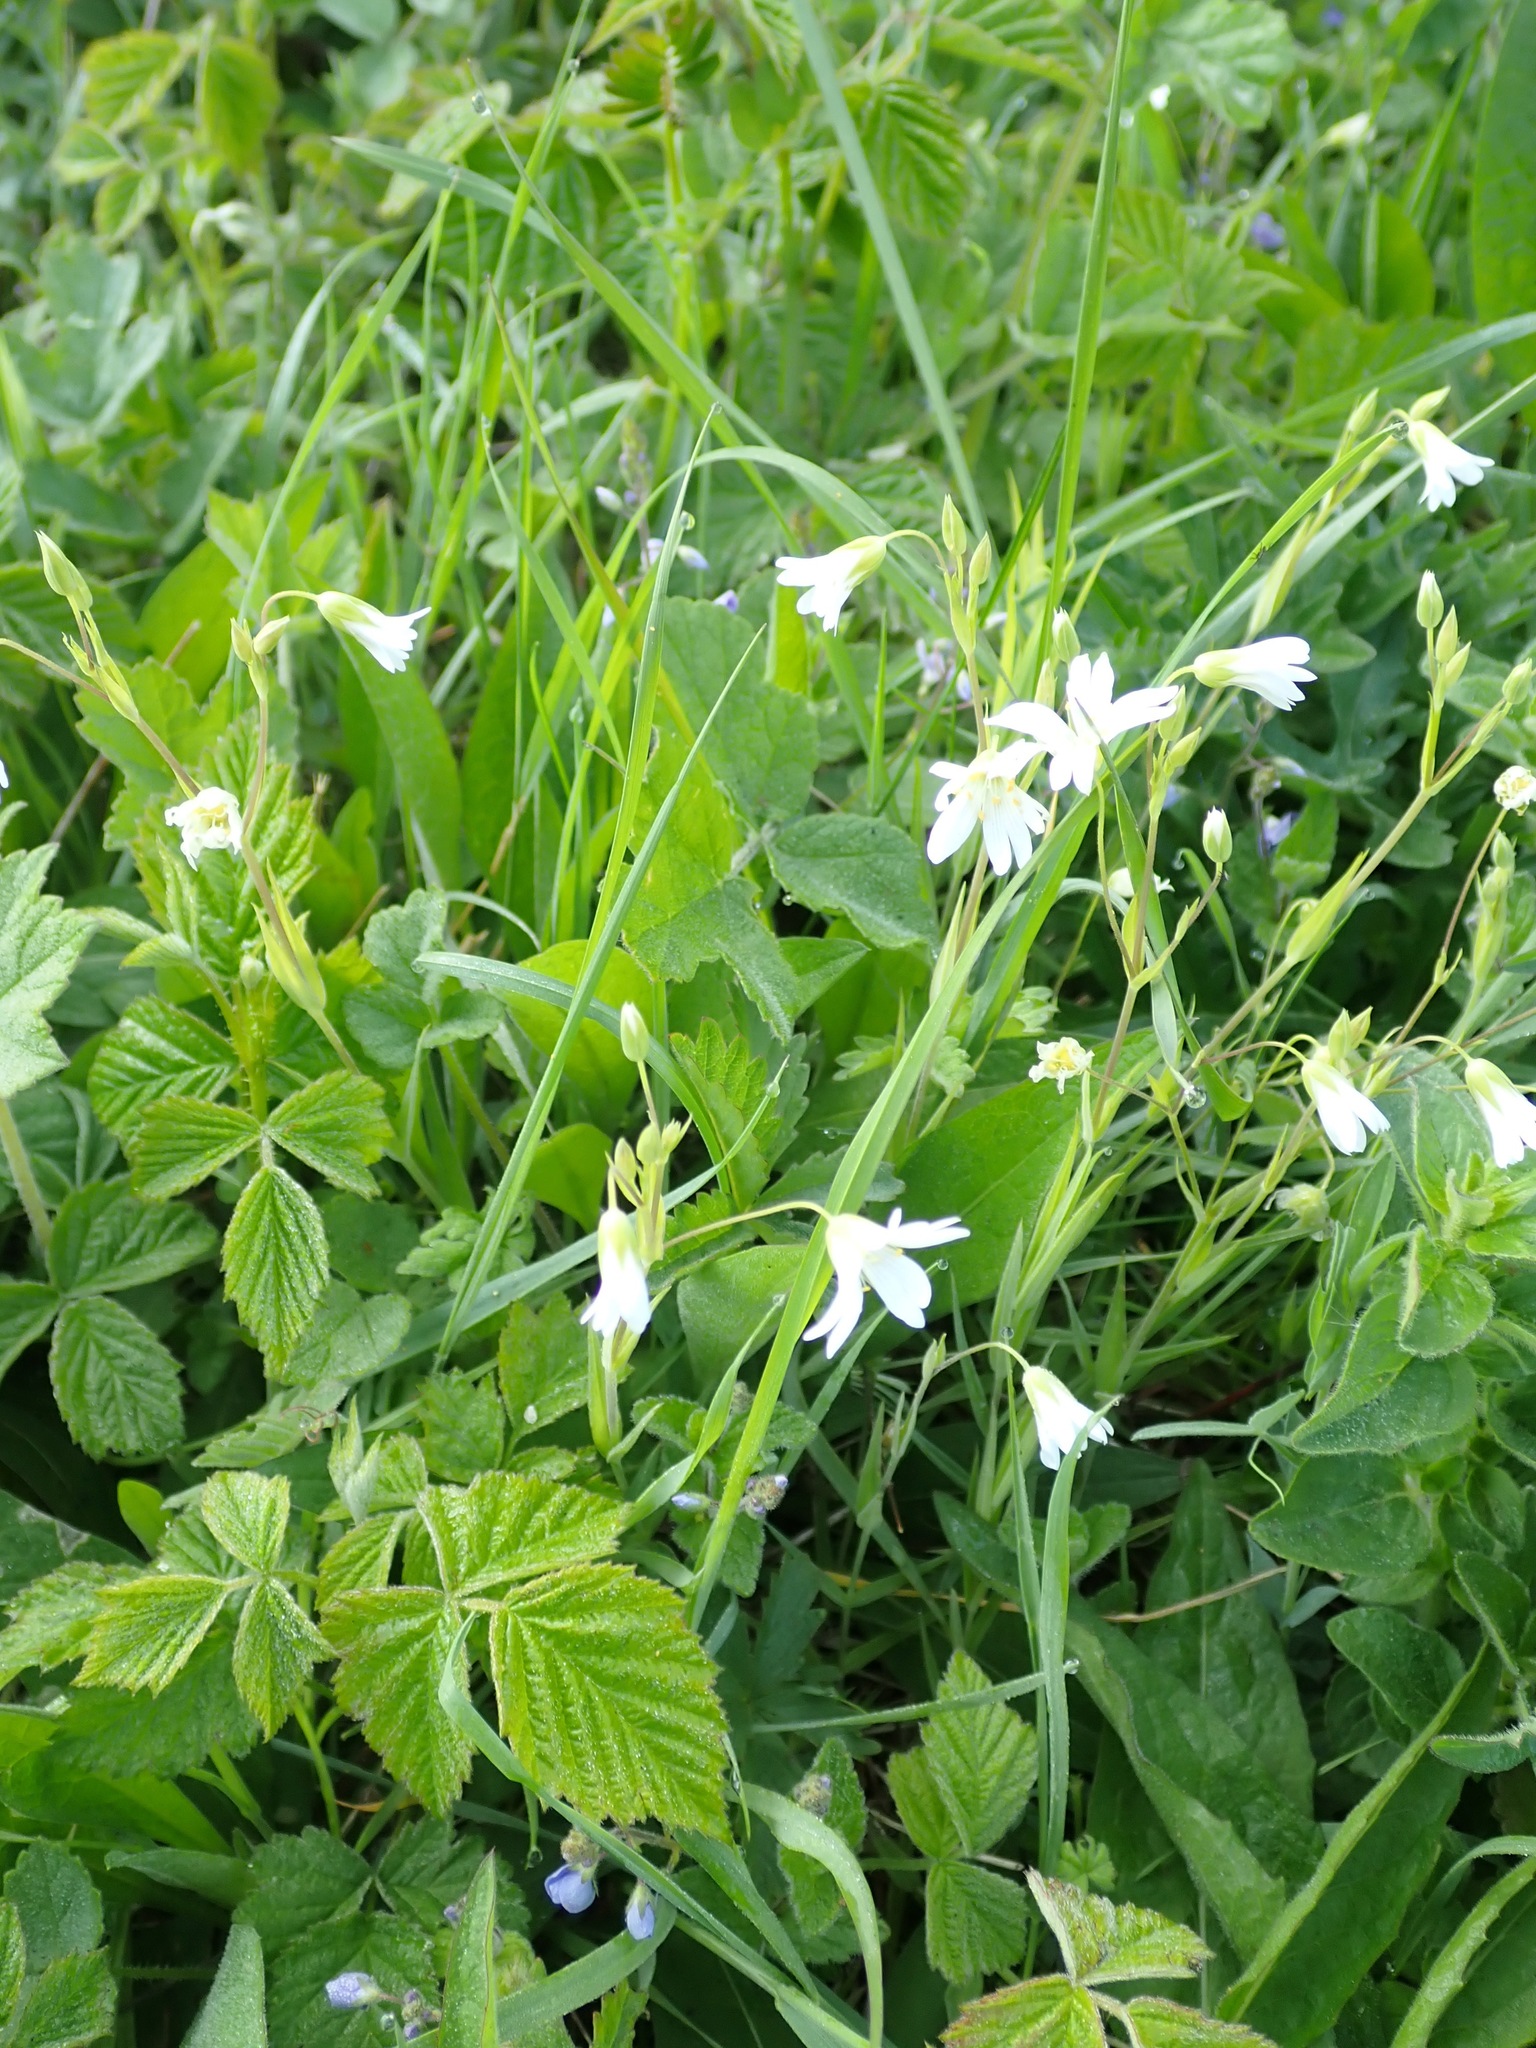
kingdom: Plantae
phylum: Tracheophyta
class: Magnoliopsida
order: Caryophyllales
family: Caryophyllaceae
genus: Rabelera
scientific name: Rabelera holostea
